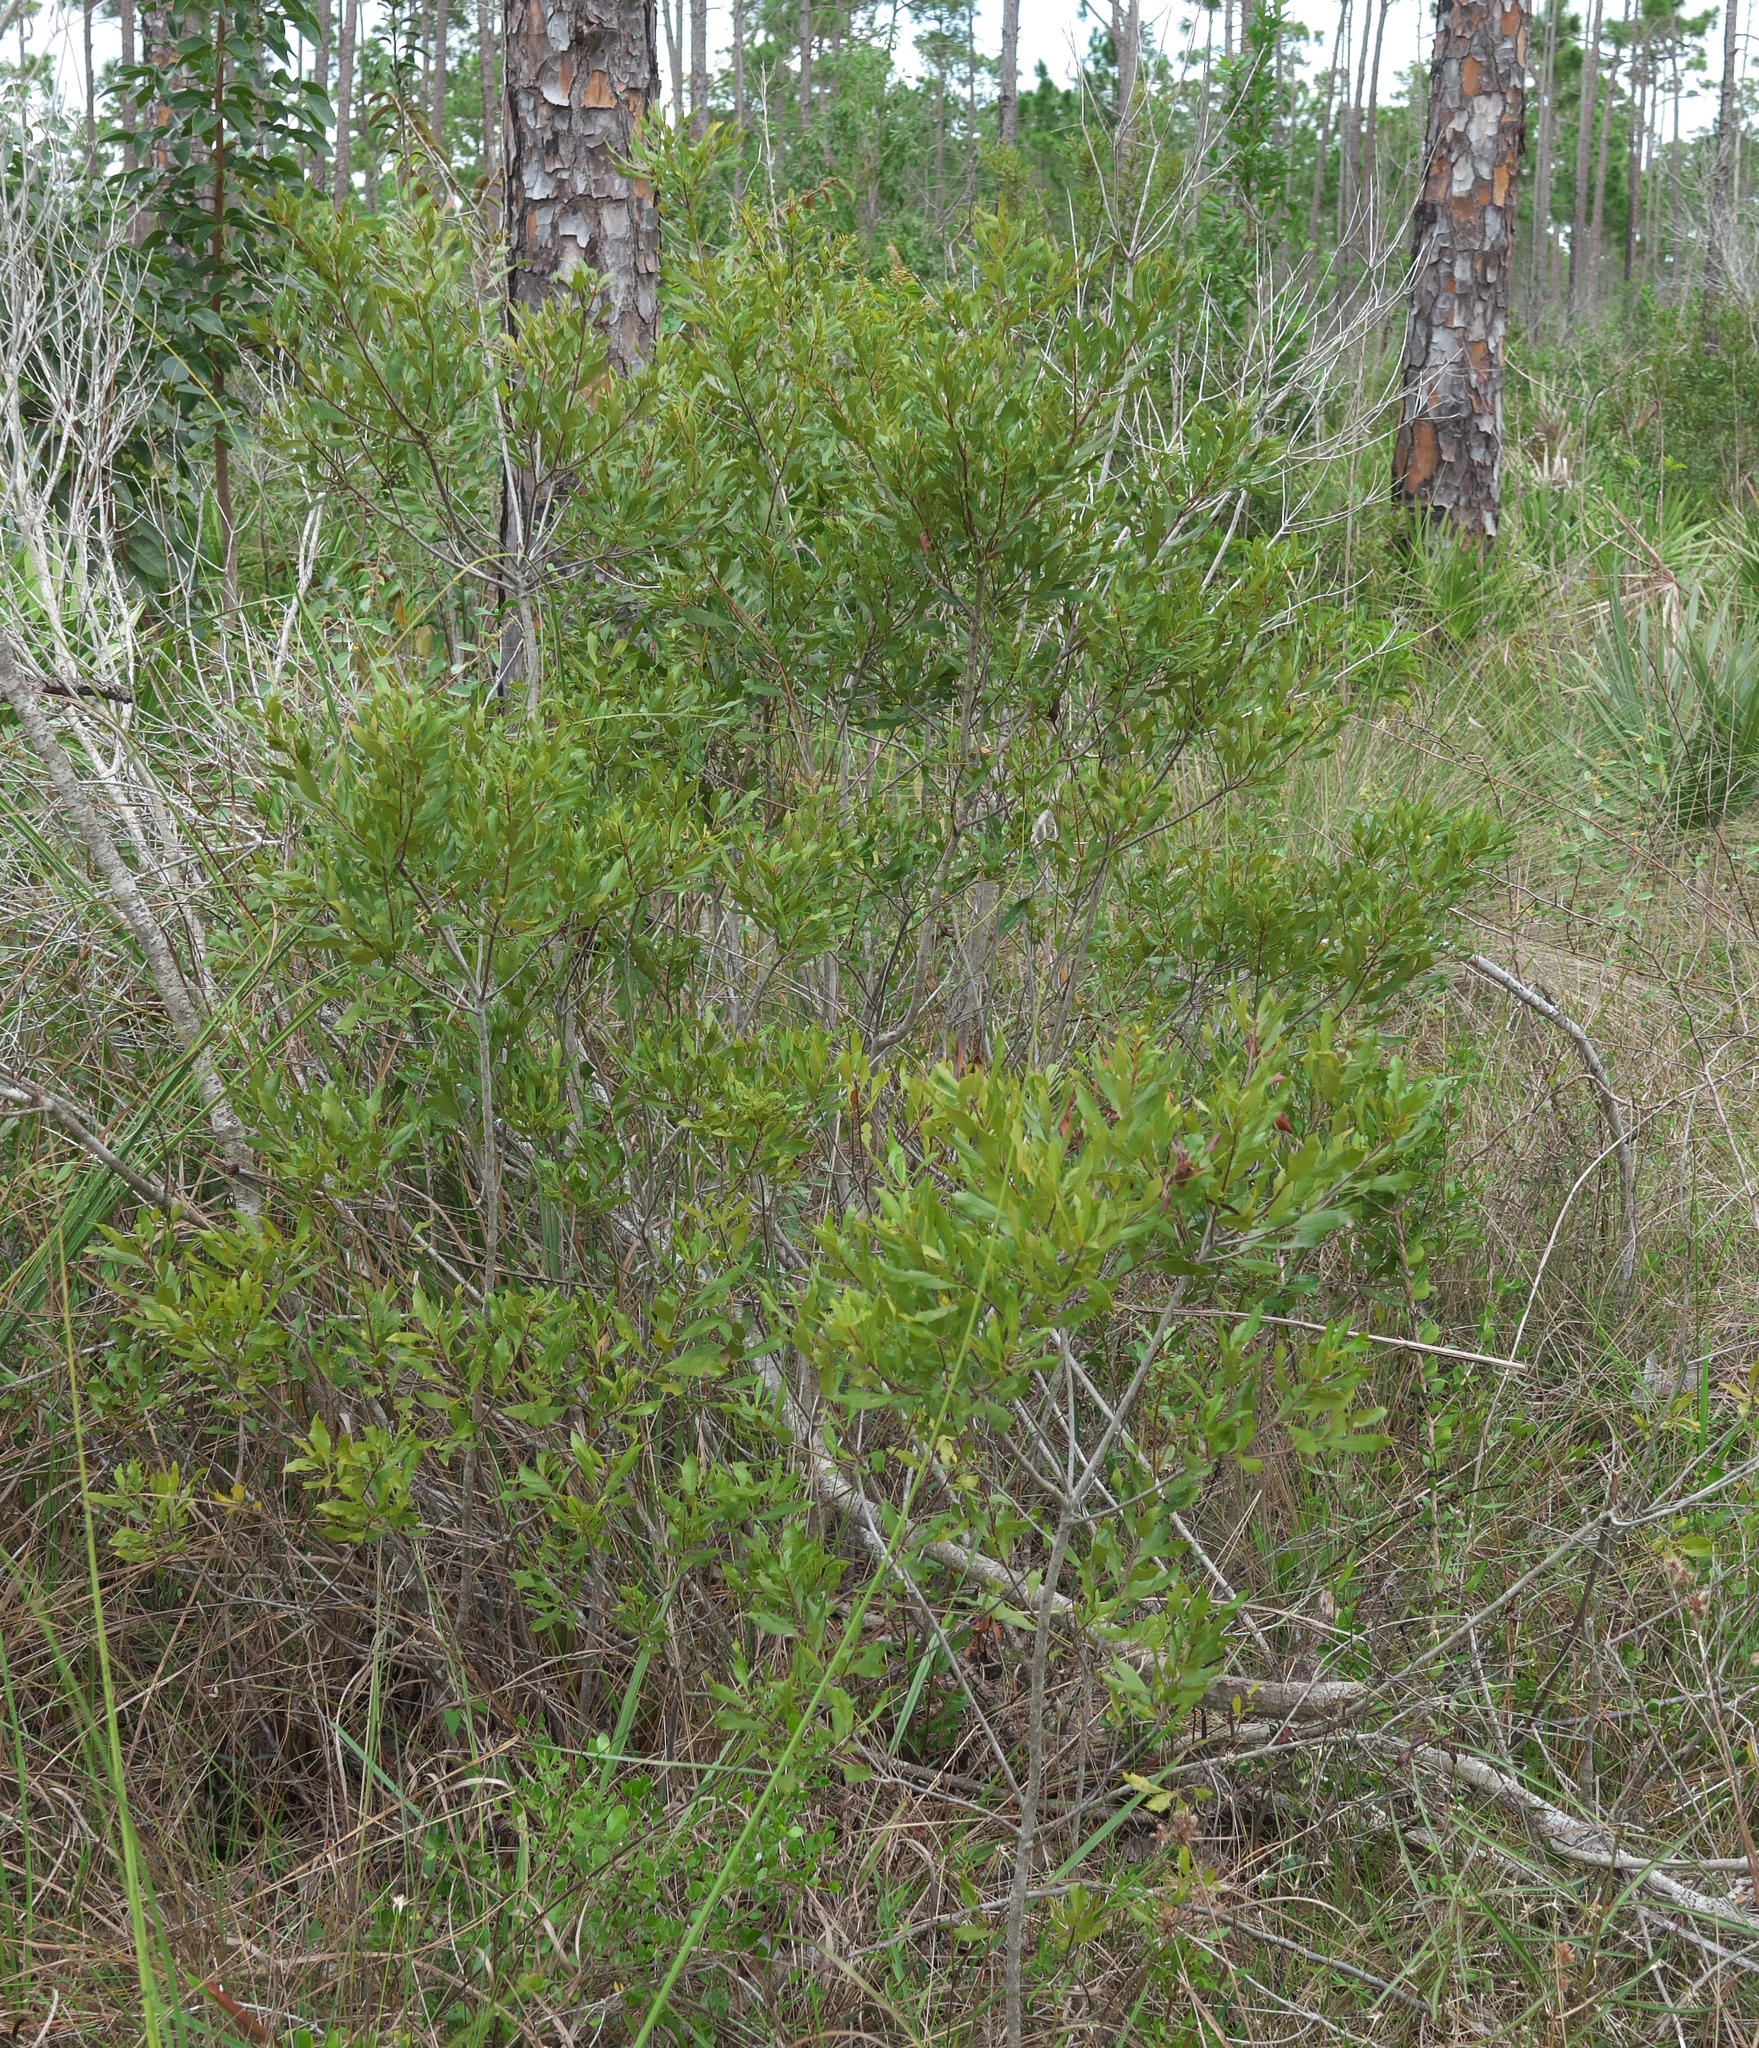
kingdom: Plantae
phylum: Tracheophyta
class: Magnoliopsida
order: Fagales
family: Myricaceae
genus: Morella
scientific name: Morella cerifera
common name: Wax myrtle
